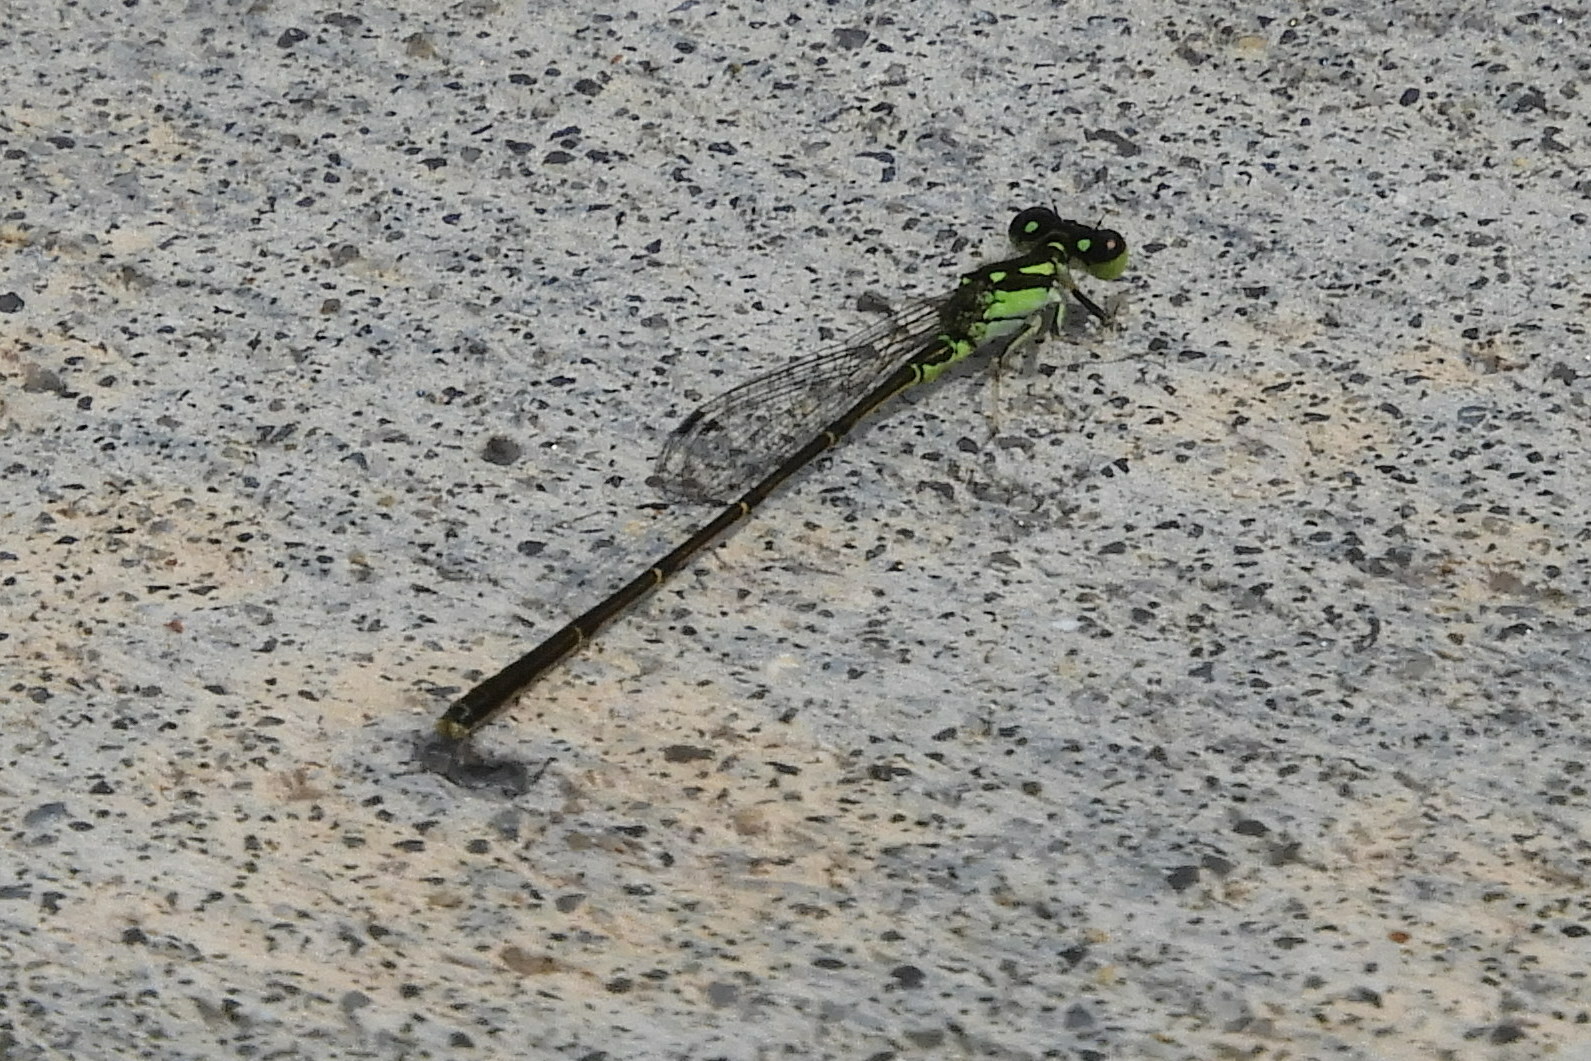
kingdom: Animalia
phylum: Arthropoda
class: Insecta
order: Odonata
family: Coenagrionidae
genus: Ischnura
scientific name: Ischnura posita
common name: Fragile forktail
